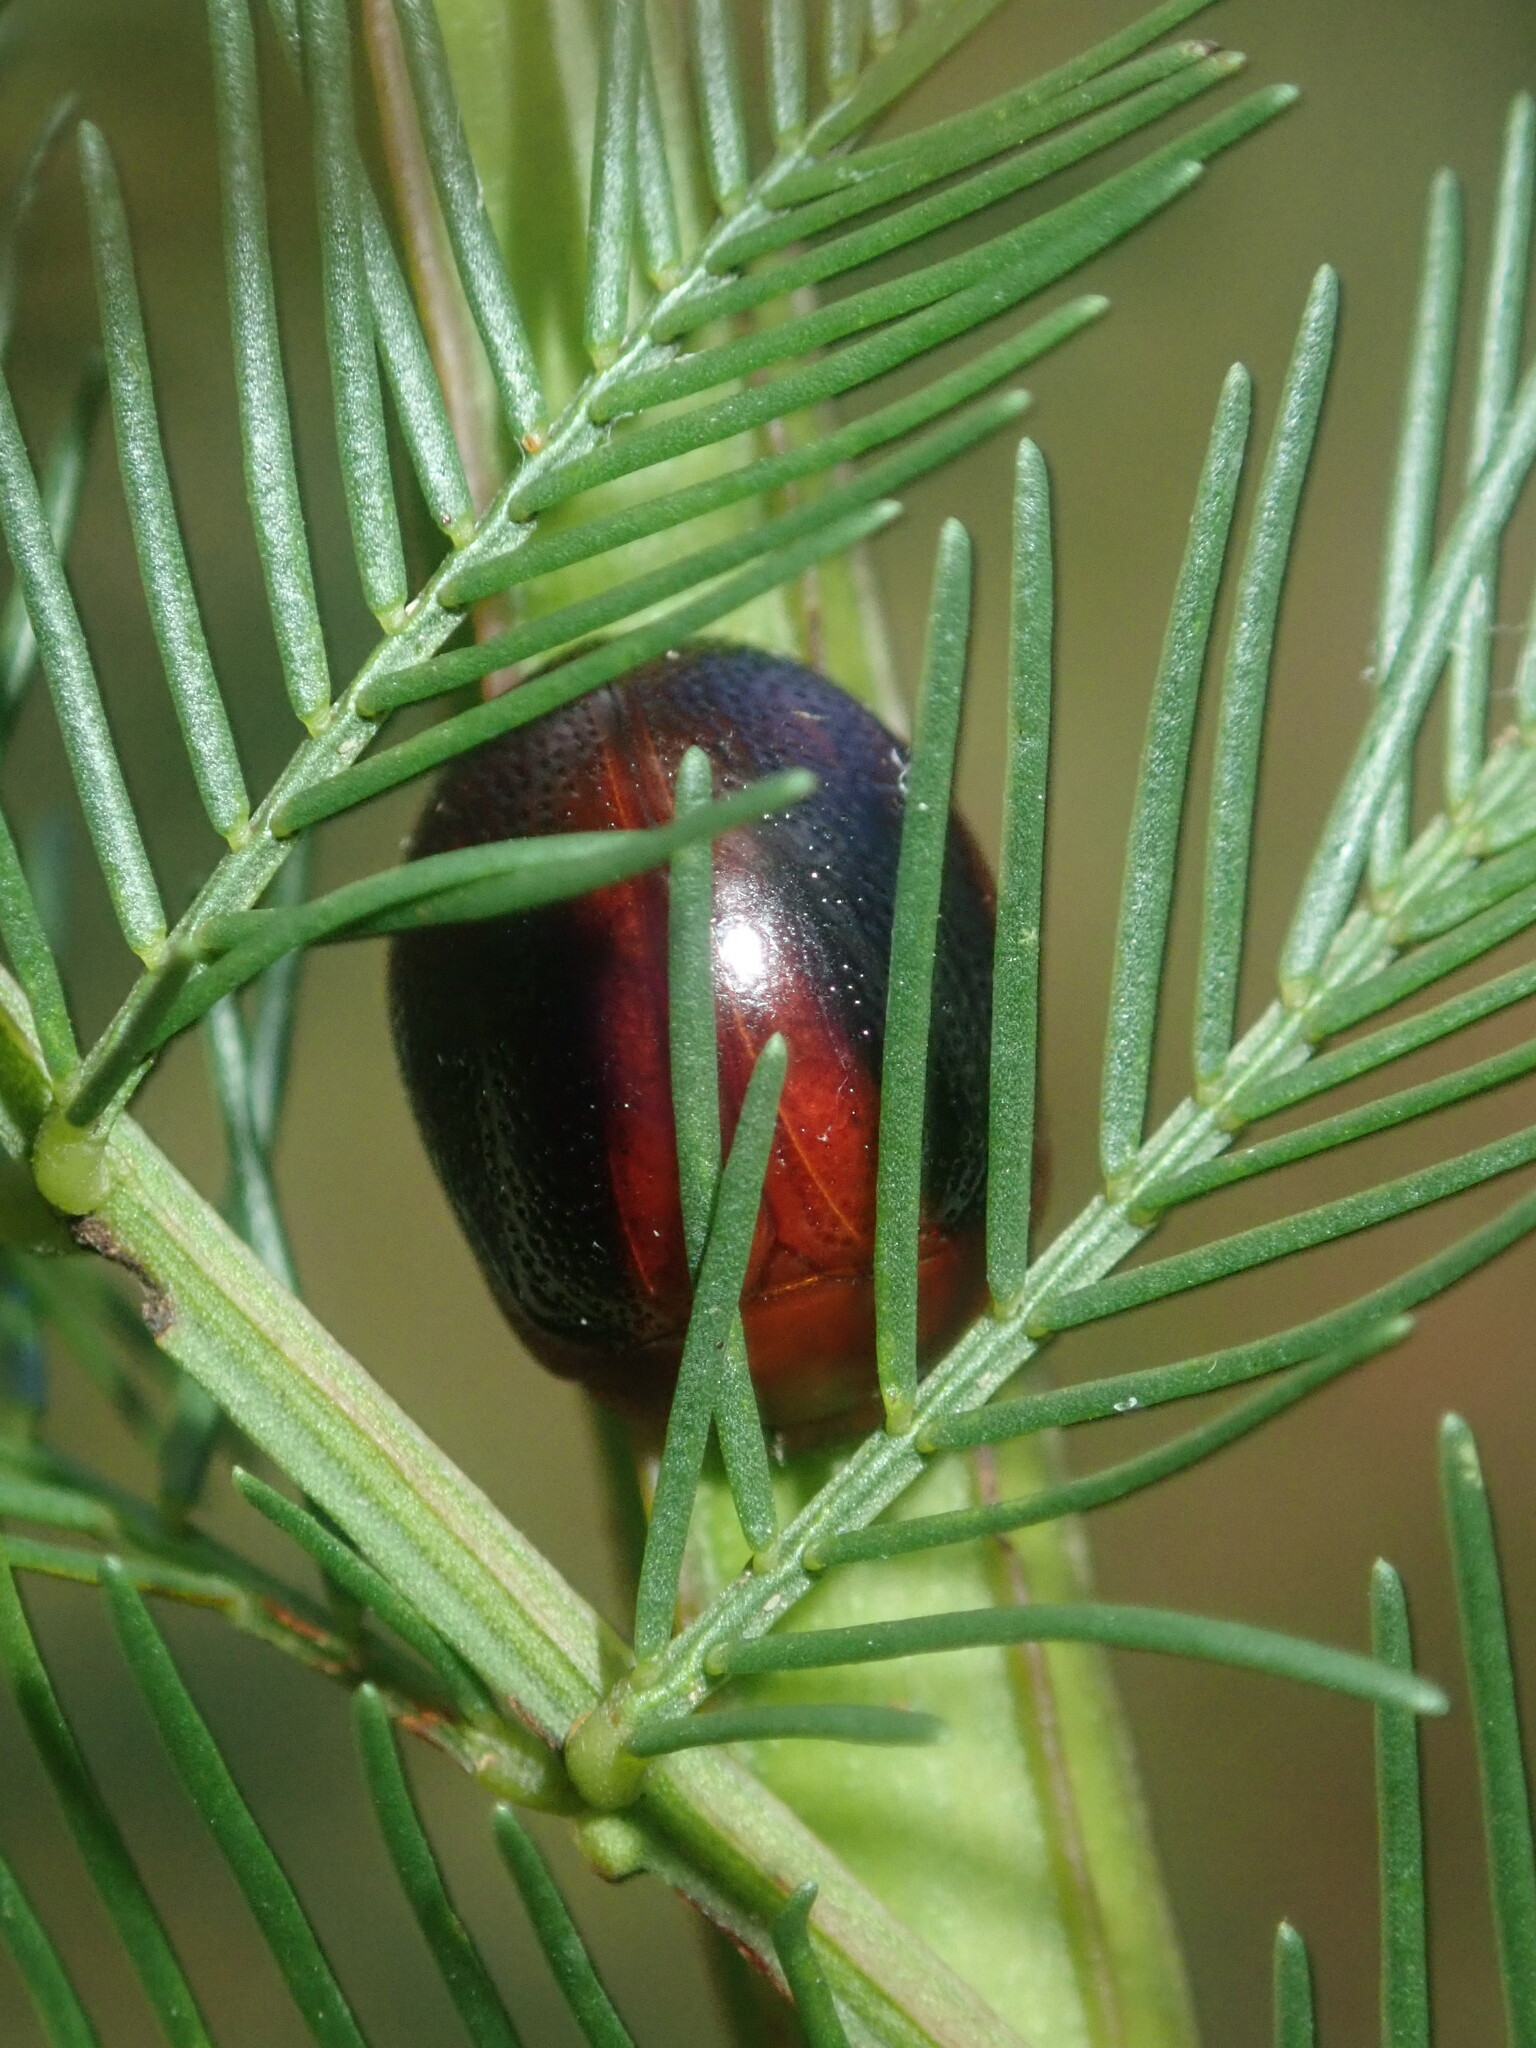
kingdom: Animalia
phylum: Arthropoda
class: Insecta
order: Coleoptera
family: Chrysomelidae
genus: Dicranosterna
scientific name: Dicranosterna
